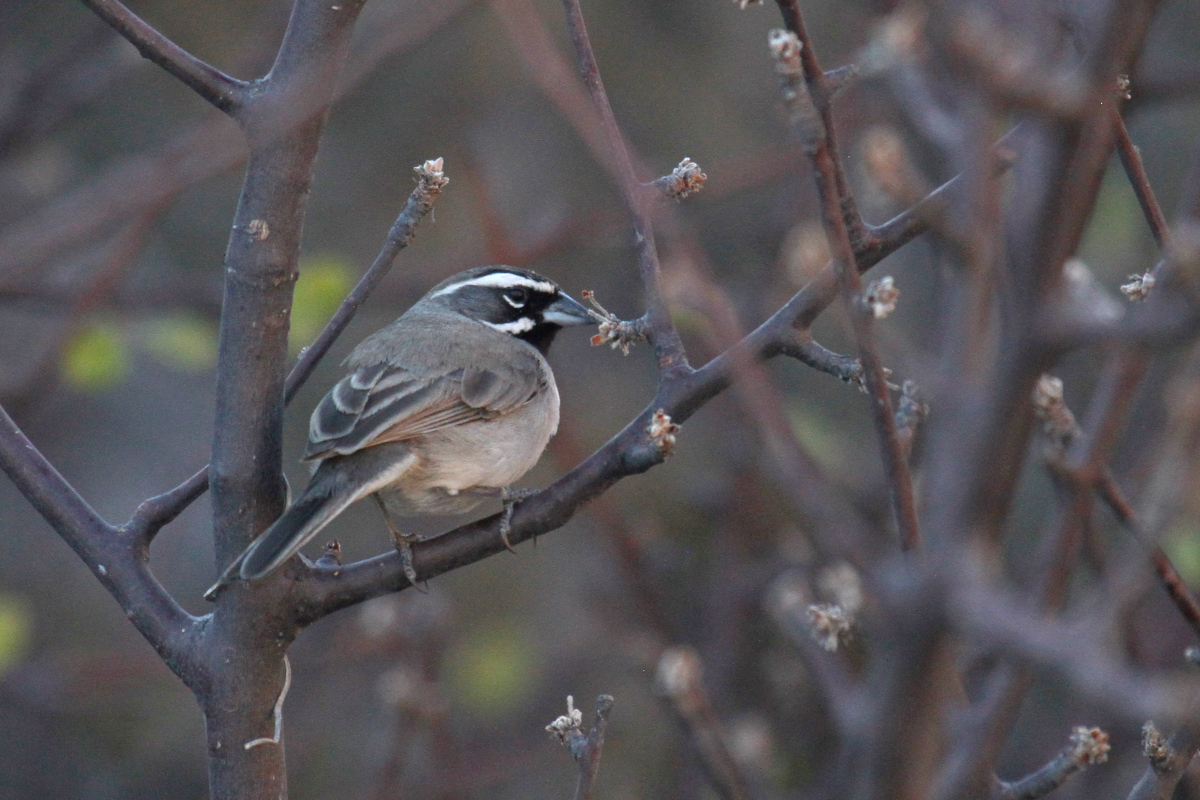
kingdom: Animalia
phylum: Chordata
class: Aves
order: Passeriformes
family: Passerellidae
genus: Amphispiza
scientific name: Amphispiza bilineata
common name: Black-throated sparrow
